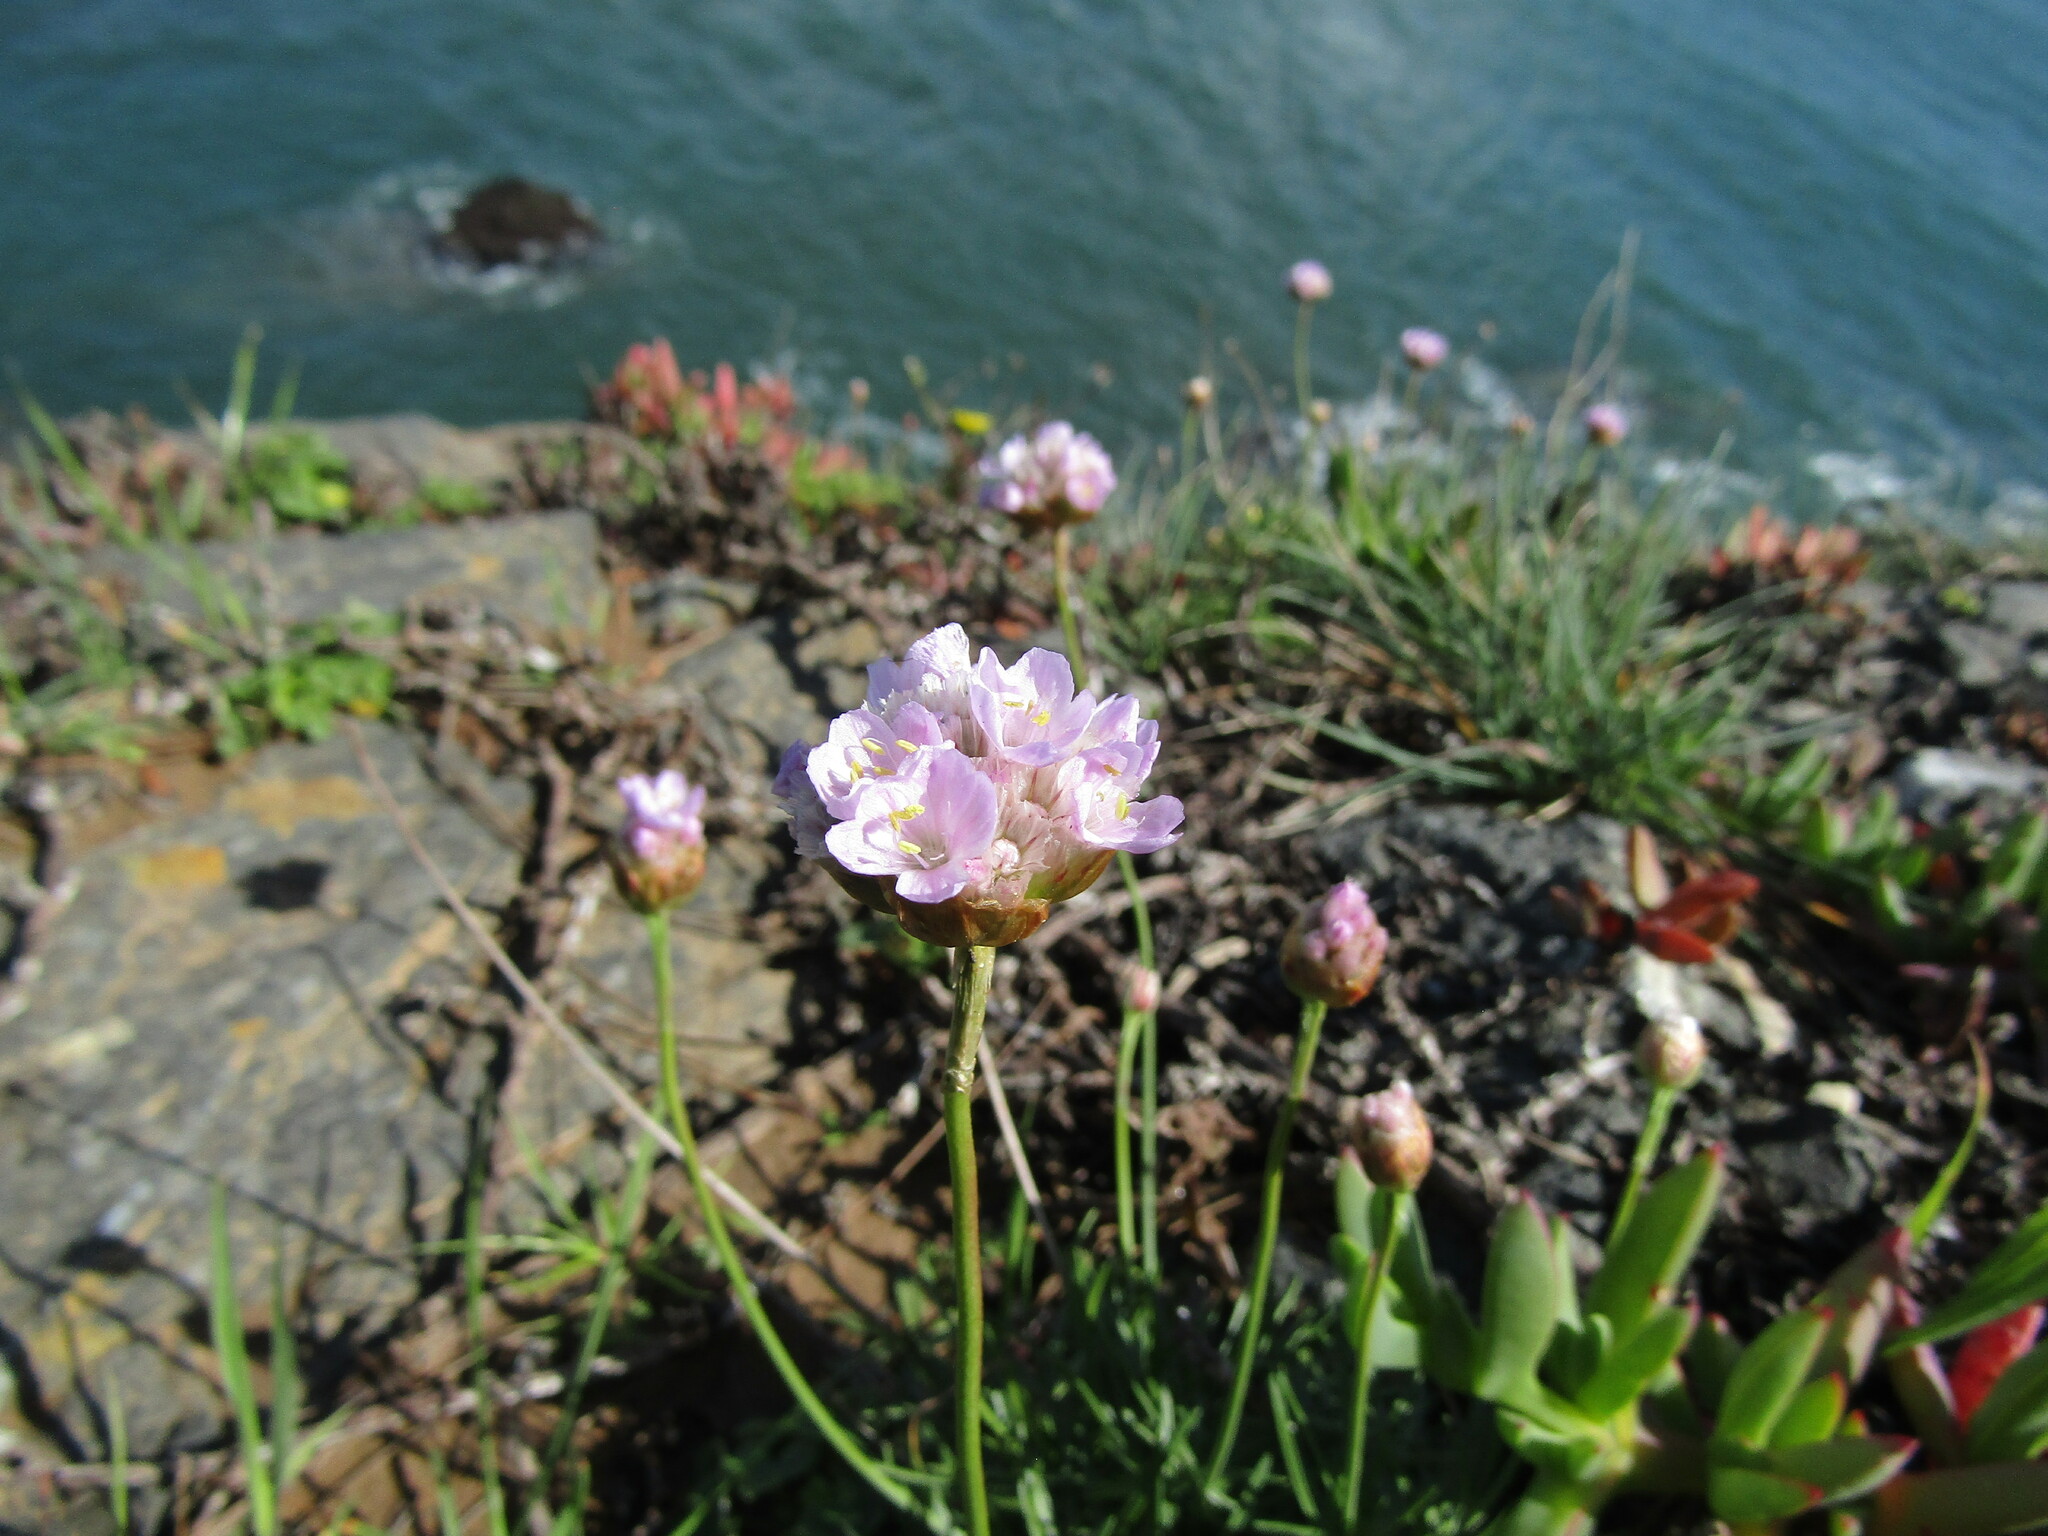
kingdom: Plantae
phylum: Tracheophyta
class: Magnoliopsida
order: Caryophyllales
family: Plumbaginaceae
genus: Armeria
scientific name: Armeria curvifolia
